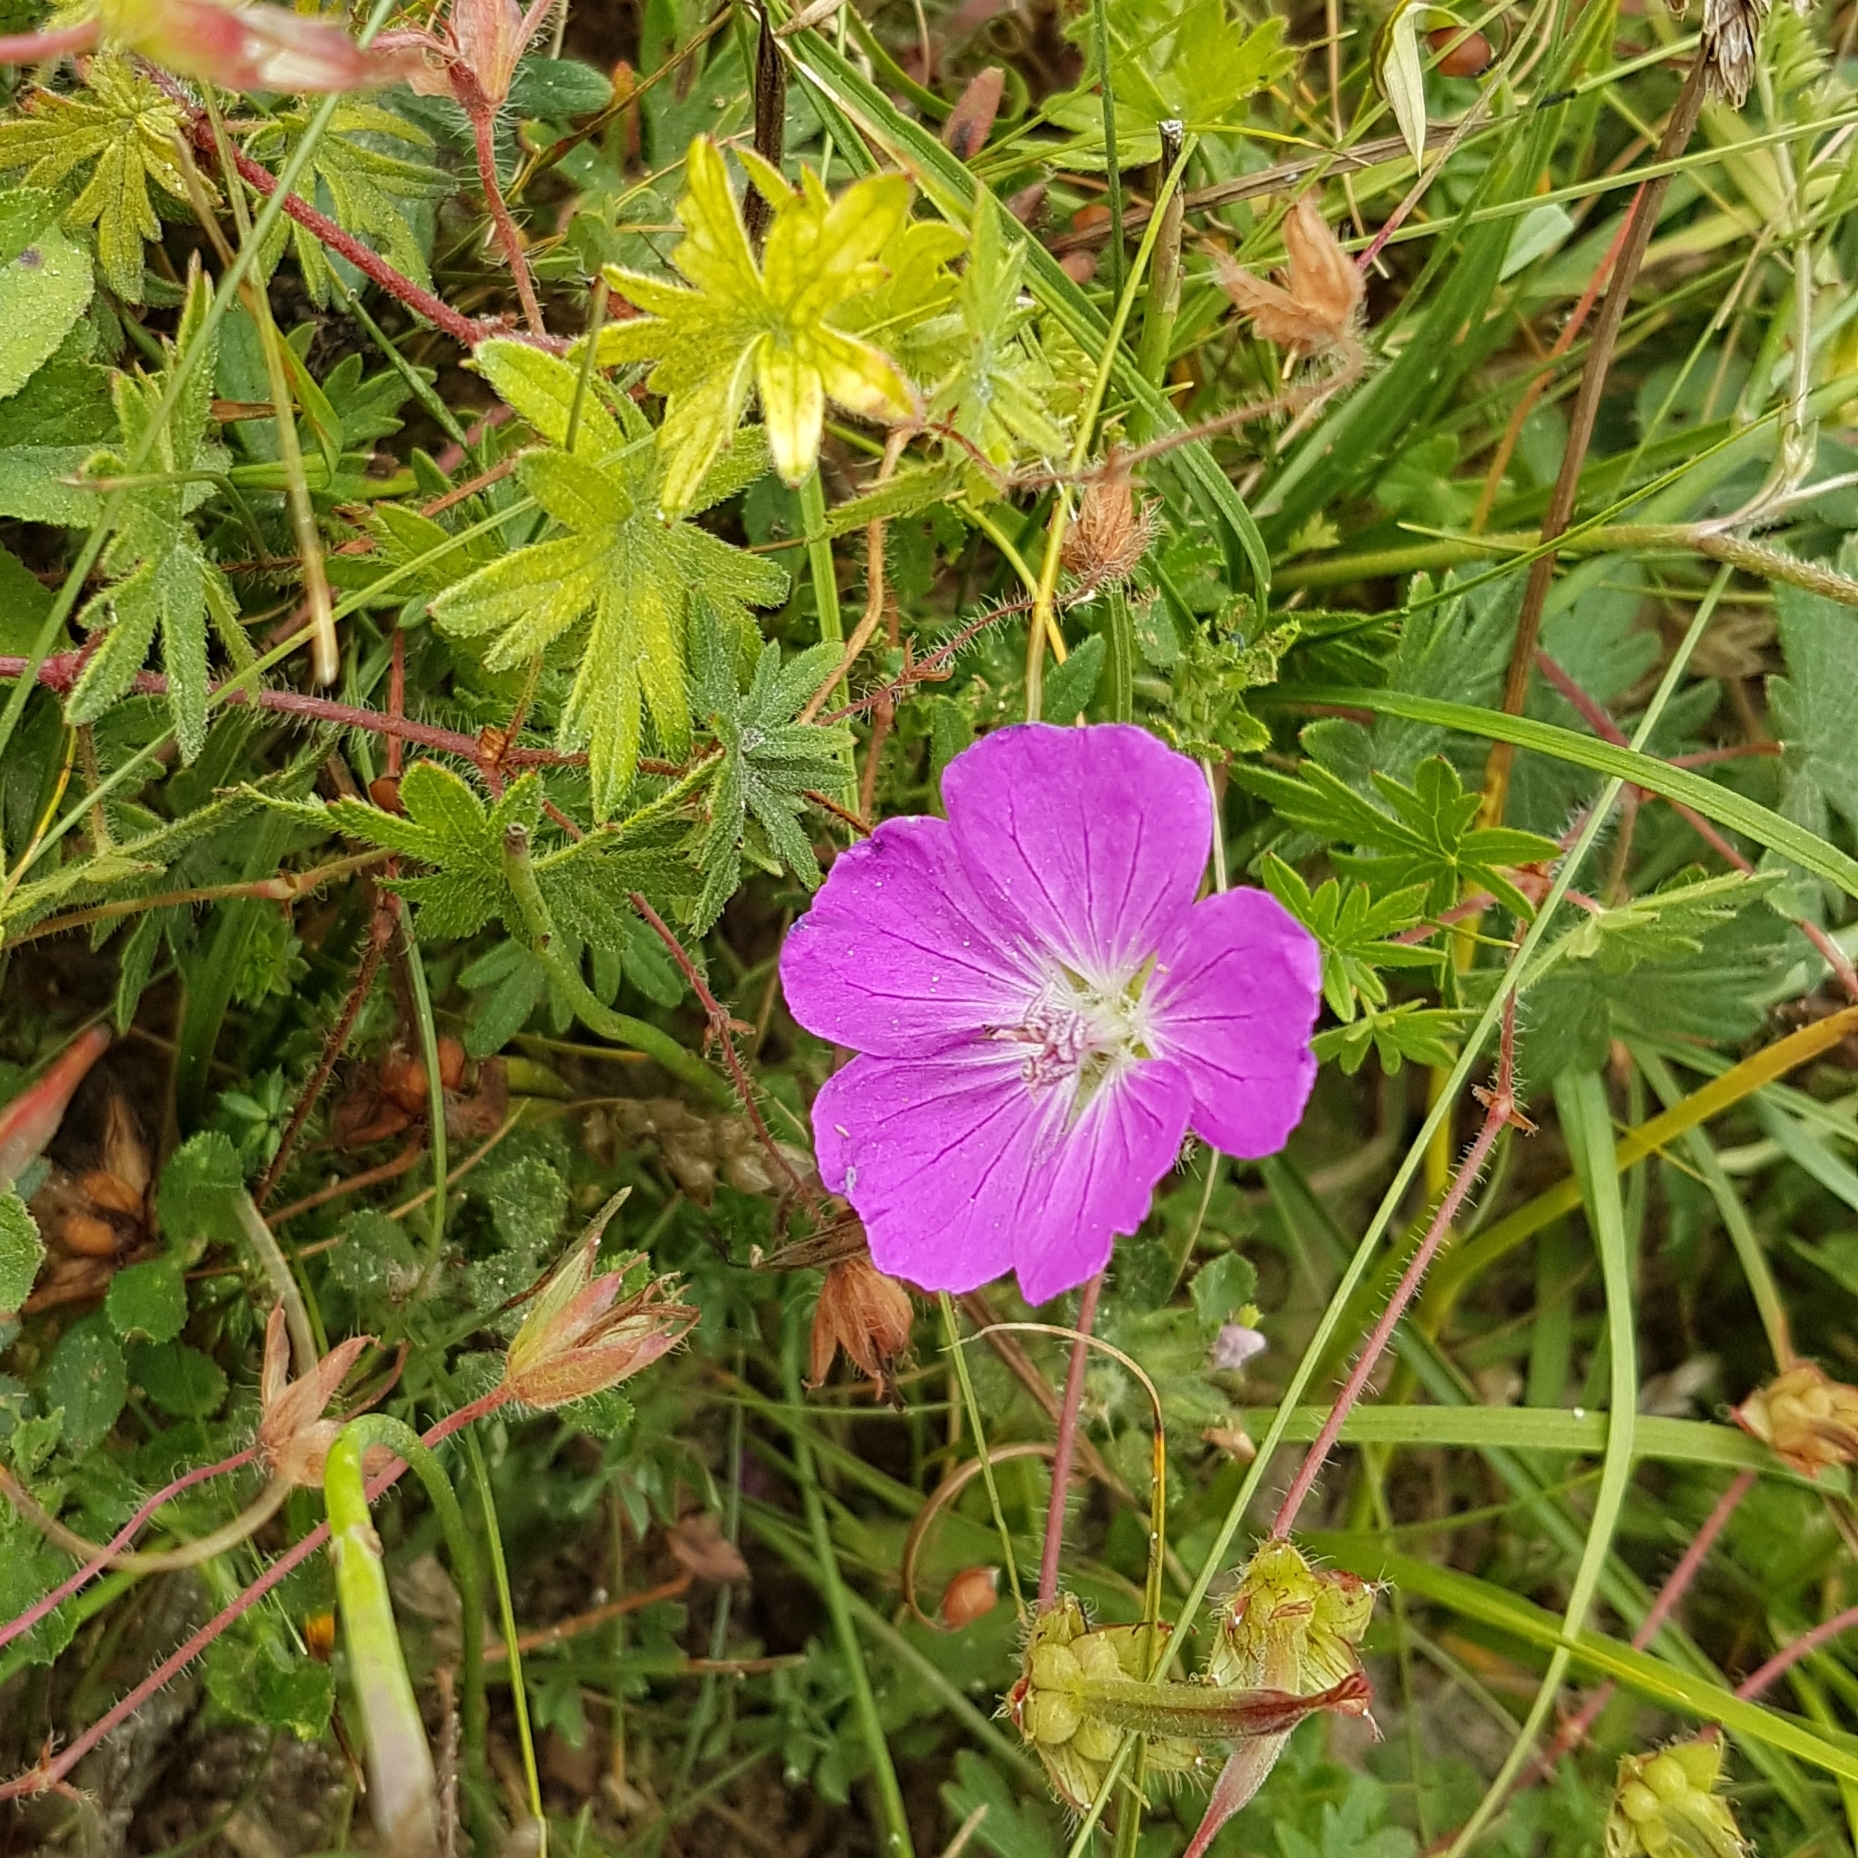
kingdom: Plantae
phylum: Tracheophyta
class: Magnoliopsida
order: Geraniales
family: Geraniaceae
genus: Geranium
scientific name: Geranium sanguineum
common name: Bloody crane's-bill
